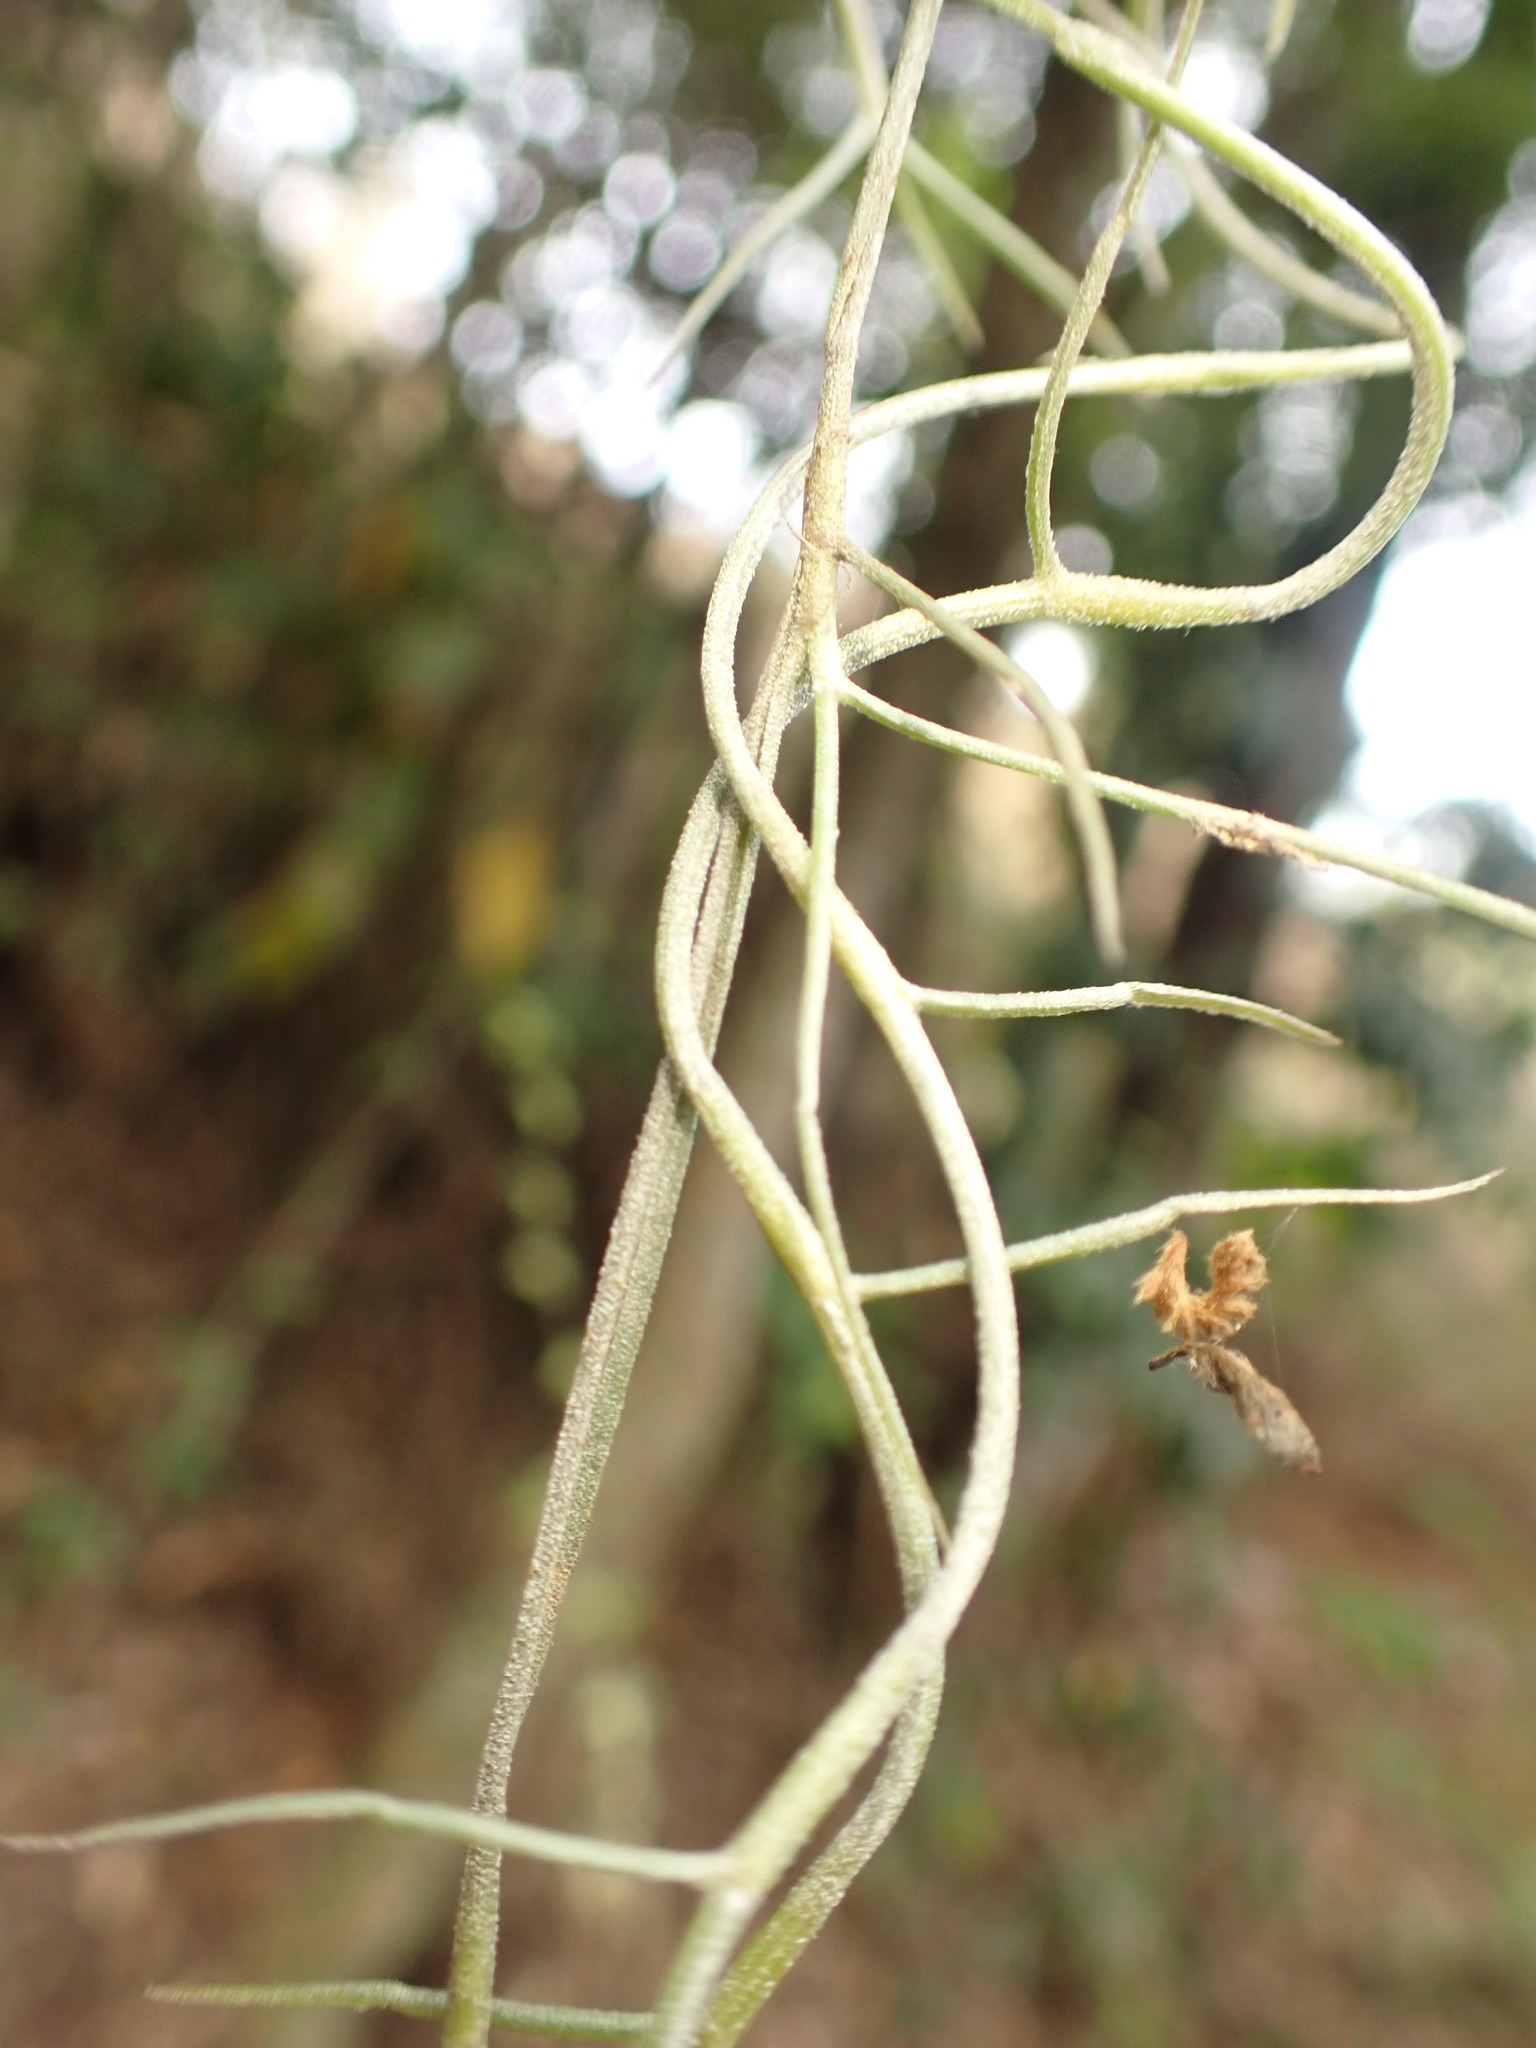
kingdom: Plantae
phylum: Tracheophyta
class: Liliopsida
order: Poales
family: Bromeliaceae
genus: Tillandsia
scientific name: Tillandsia usneoides
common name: Spanish moss
